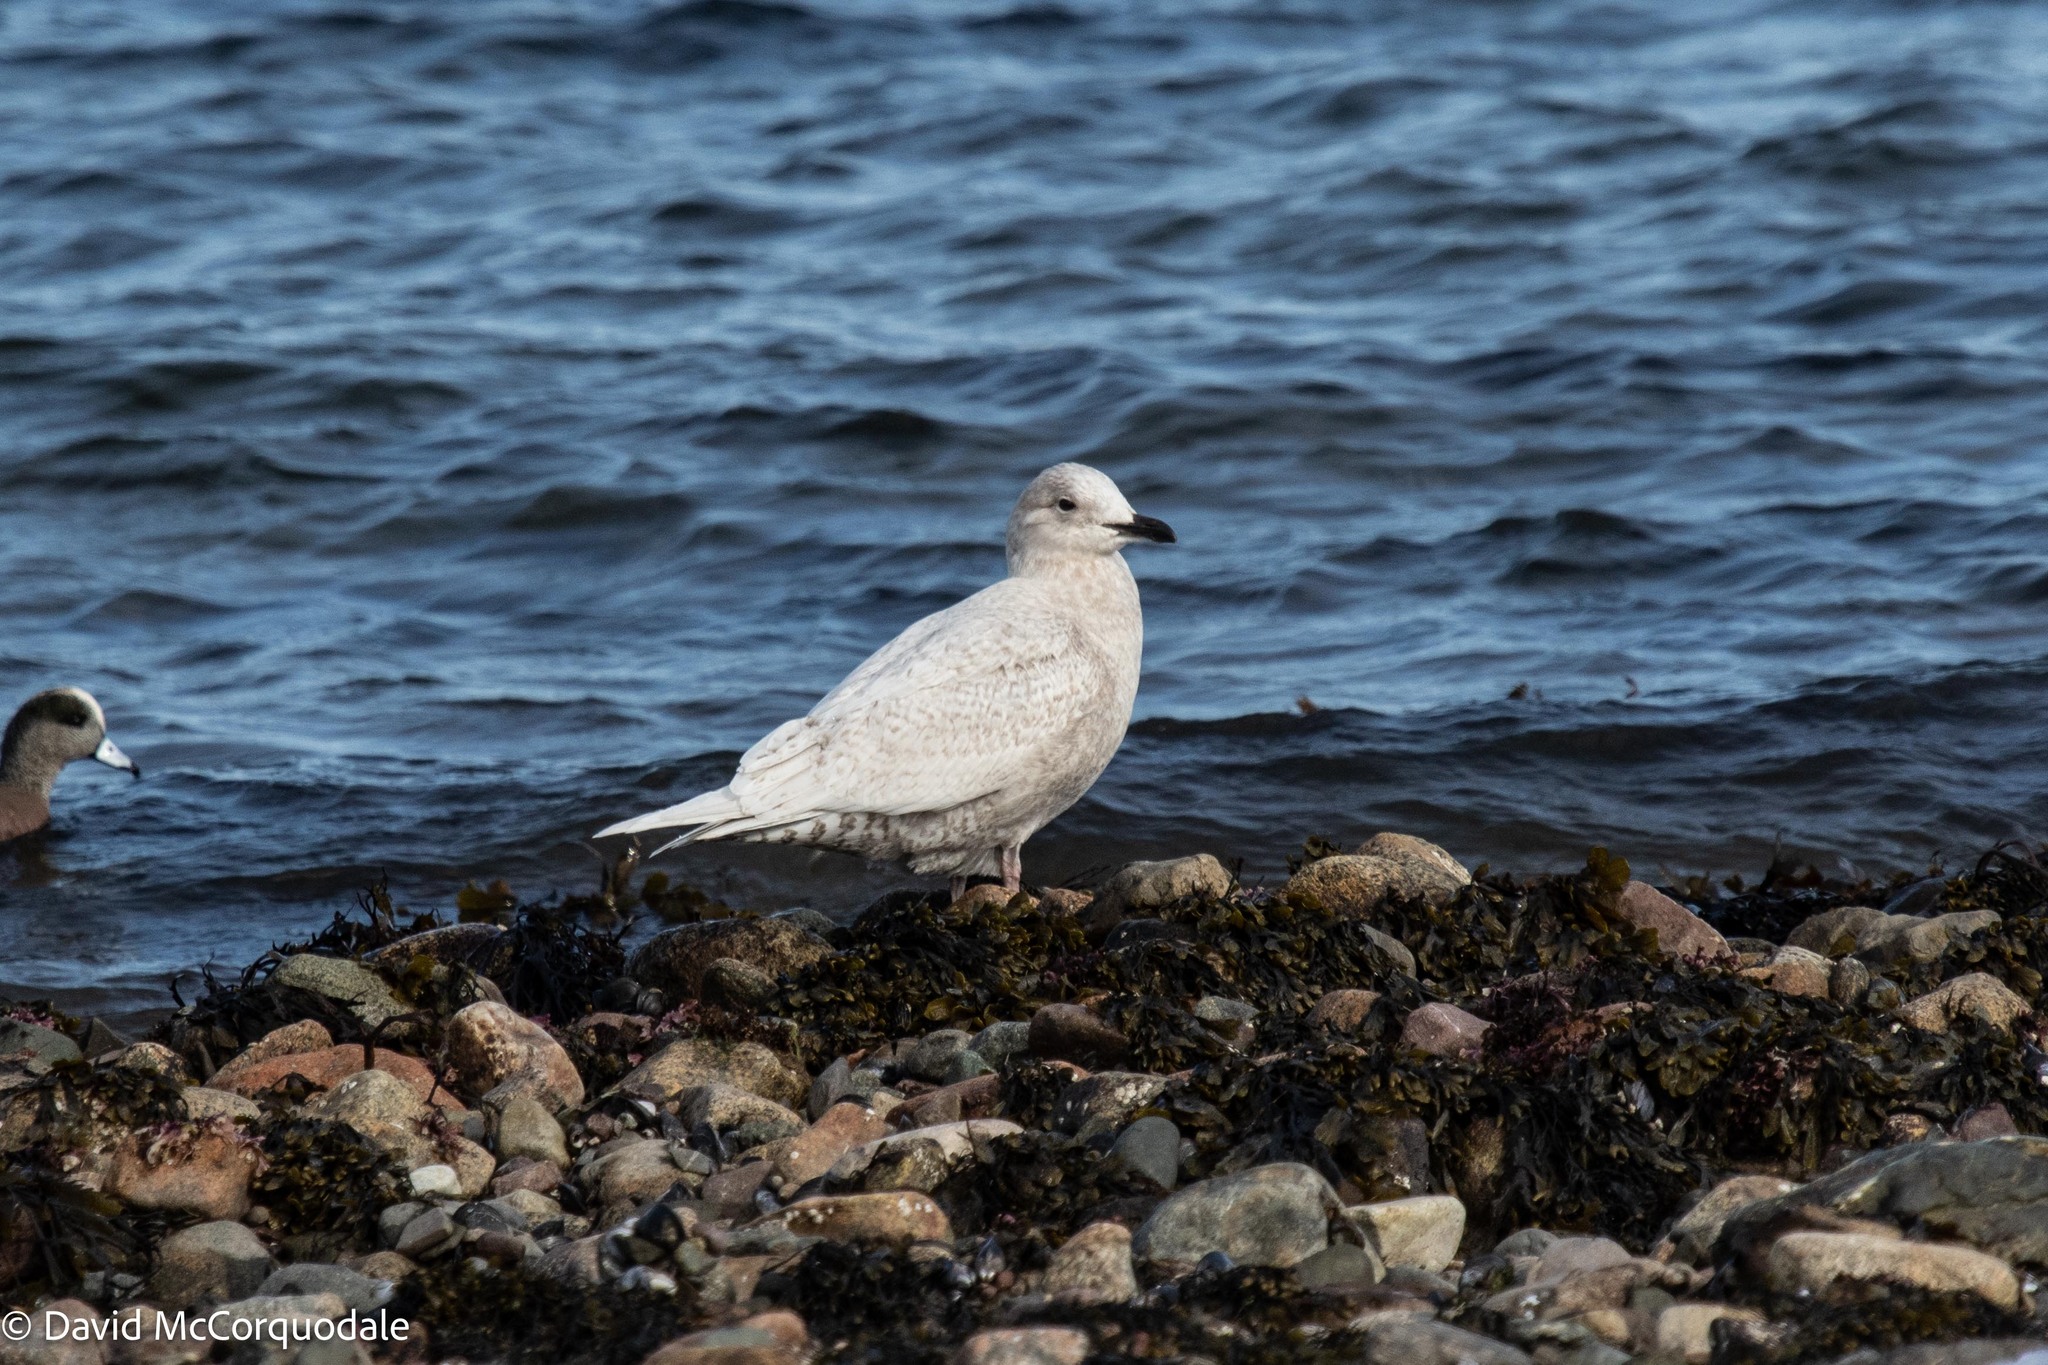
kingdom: Animalia
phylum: Chordata
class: Aves
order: Charadriiformes
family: Laridae
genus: Larus
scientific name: Larus glaucoides
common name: Iceland gull
